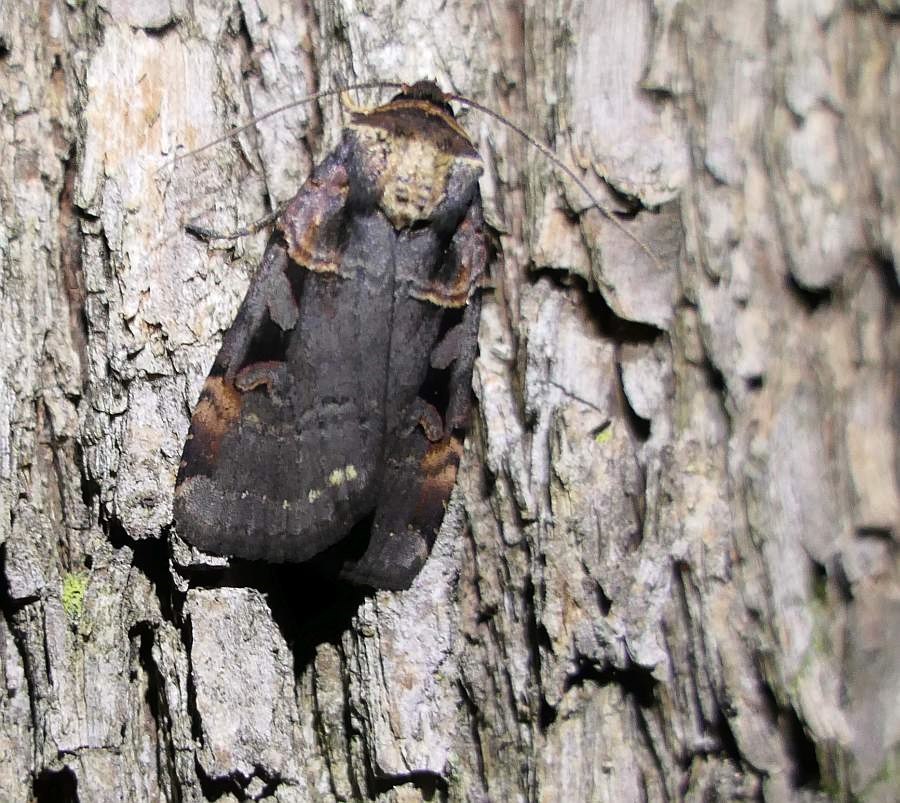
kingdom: Animalia
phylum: Arthropoda
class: Insecta
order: Lepidoptera
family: Noctuidae
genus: Pseudohermonassa
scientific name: Pseudohermonassa bicarnea
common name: Pink spotted dart
